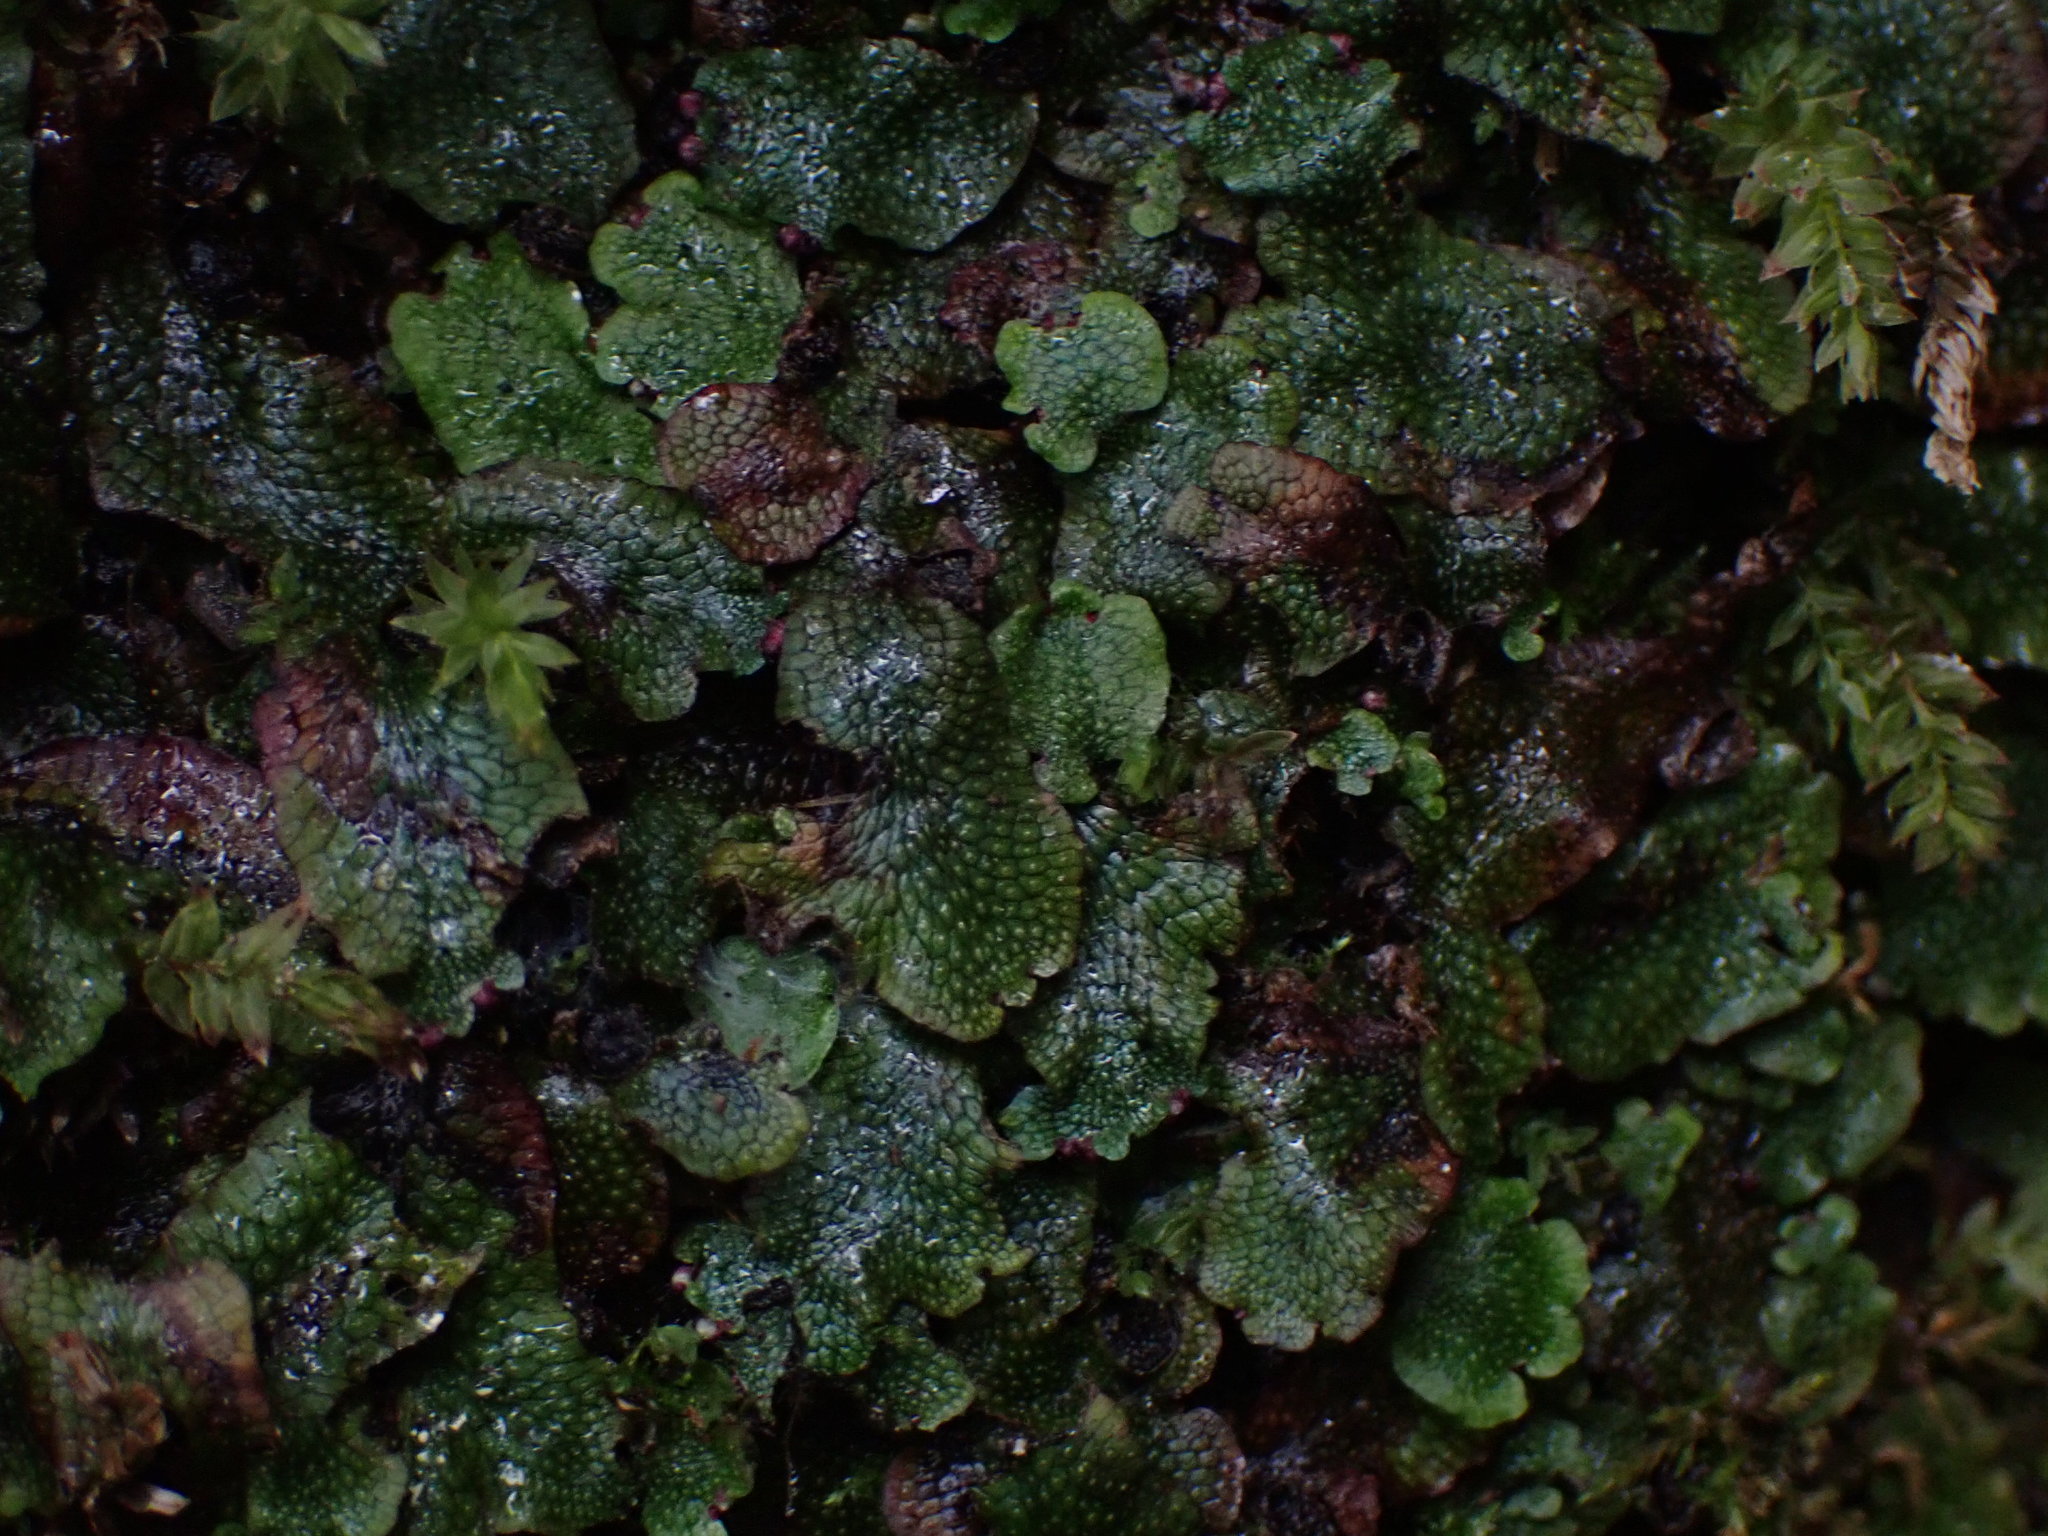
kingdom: Plantae
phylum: Marchantiophyta
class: Marchantiopsida
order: Marchantiales
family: Conocephalaceae
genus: Conocephalum
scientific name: Conocephalum salebrosum
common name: Cat-tongue liverwort
